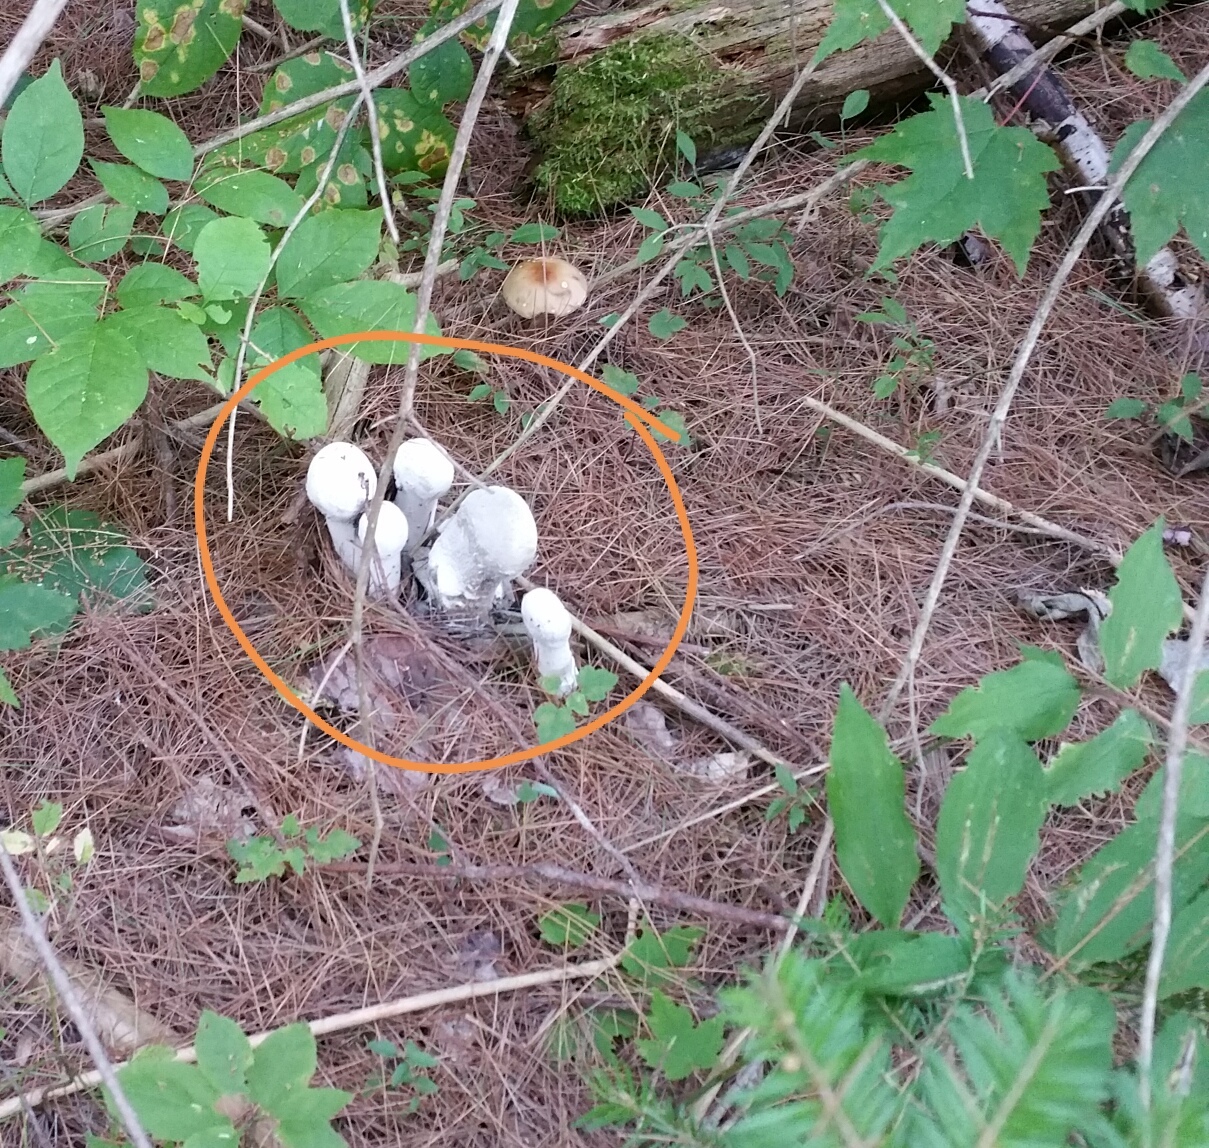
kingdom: Fungi
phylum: Ascomycota
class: Sordariomycetes
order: Hypocreales
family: Hypocreaceae
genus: Hypomyces
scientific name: Hypomyces hyalinus
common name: Amanita mold
